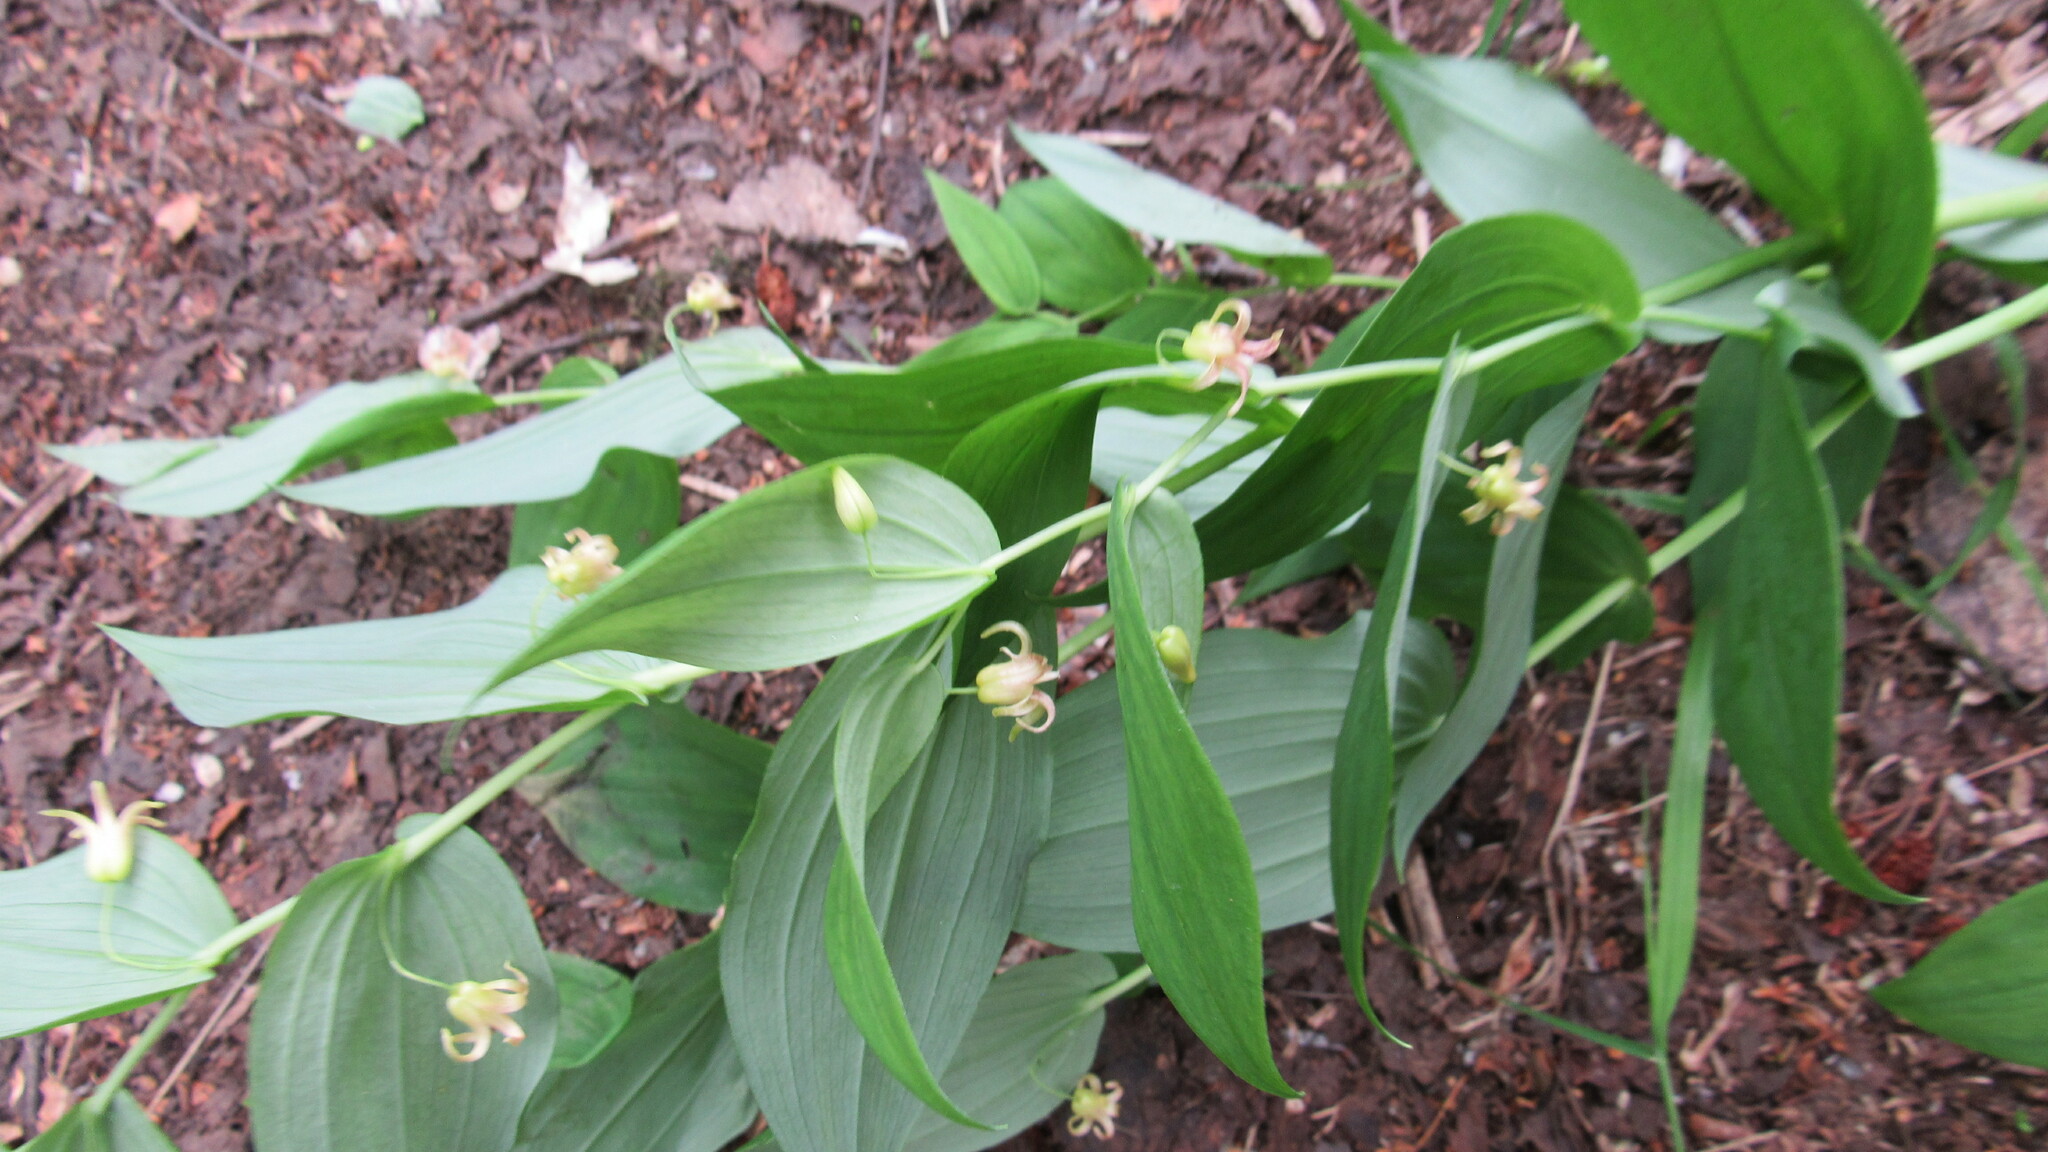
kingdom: Plantae
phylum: Tracheophyta
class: Liliopsida
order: Liliales
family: Liliaceae
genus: Streptopus
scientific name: Streptopus amplexifolius
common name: Clasp twisted stalk
